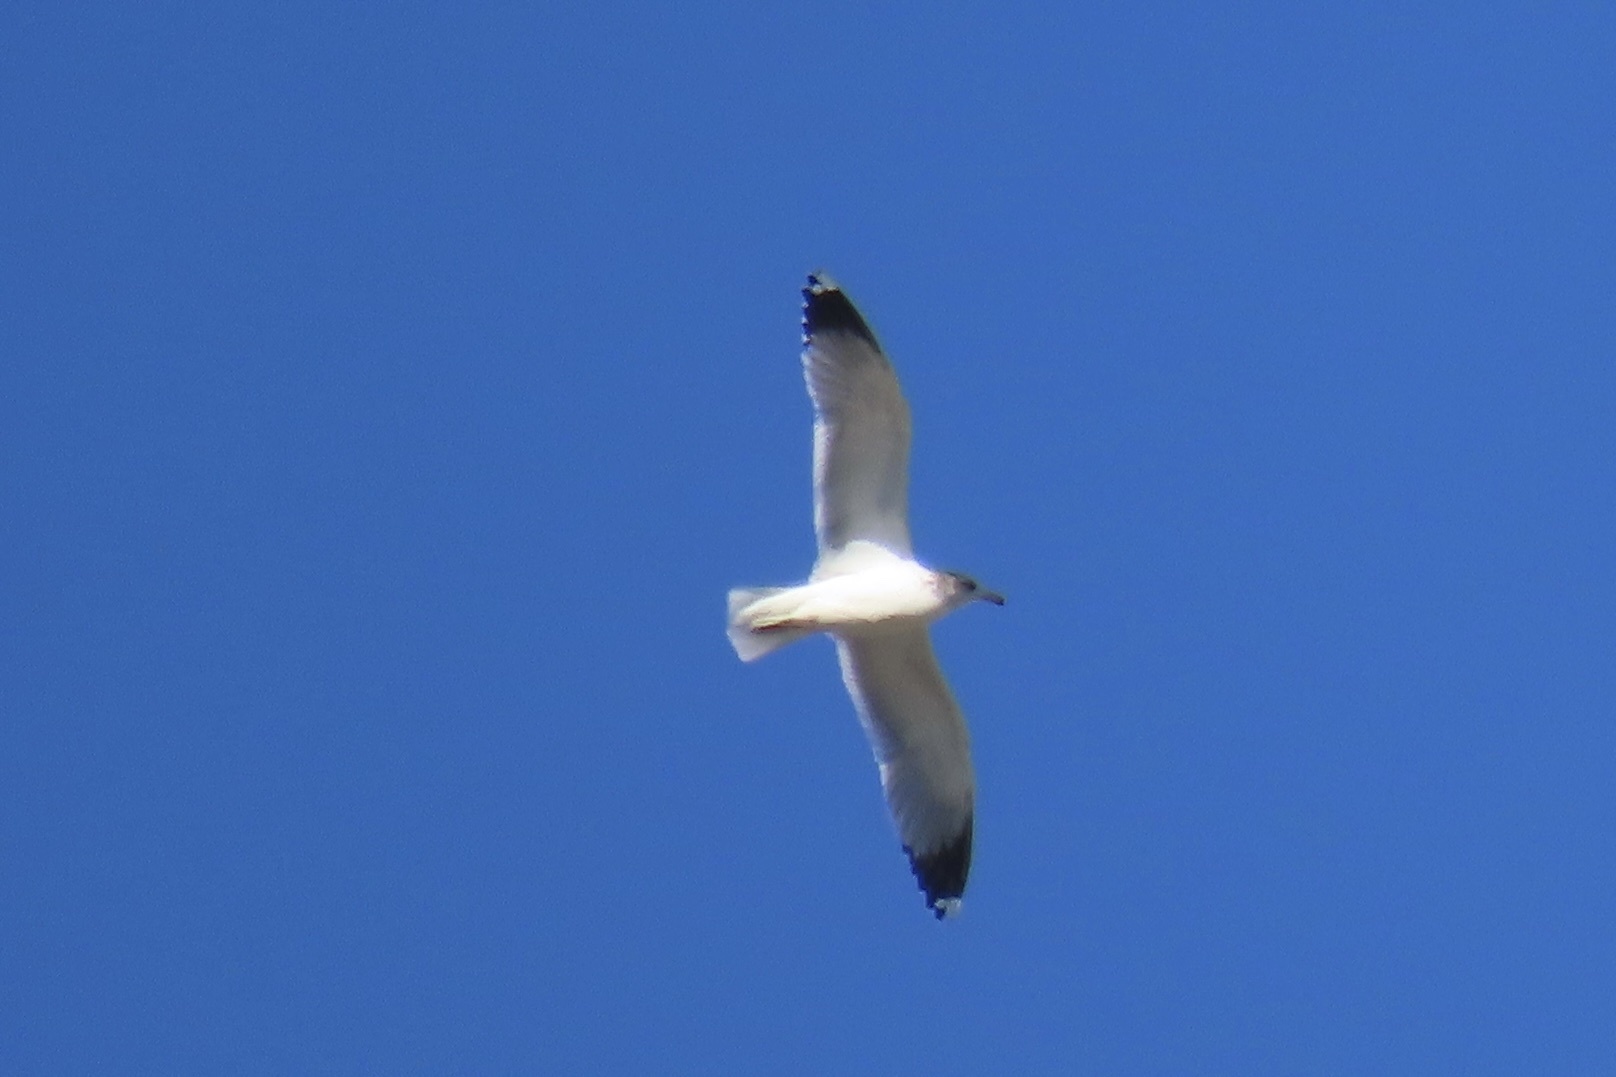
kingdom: Animalia
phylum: Chordata
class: Aves
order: Charadriiformes
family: Laridae
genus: Larus
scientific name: Larus californicus
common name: California gull
